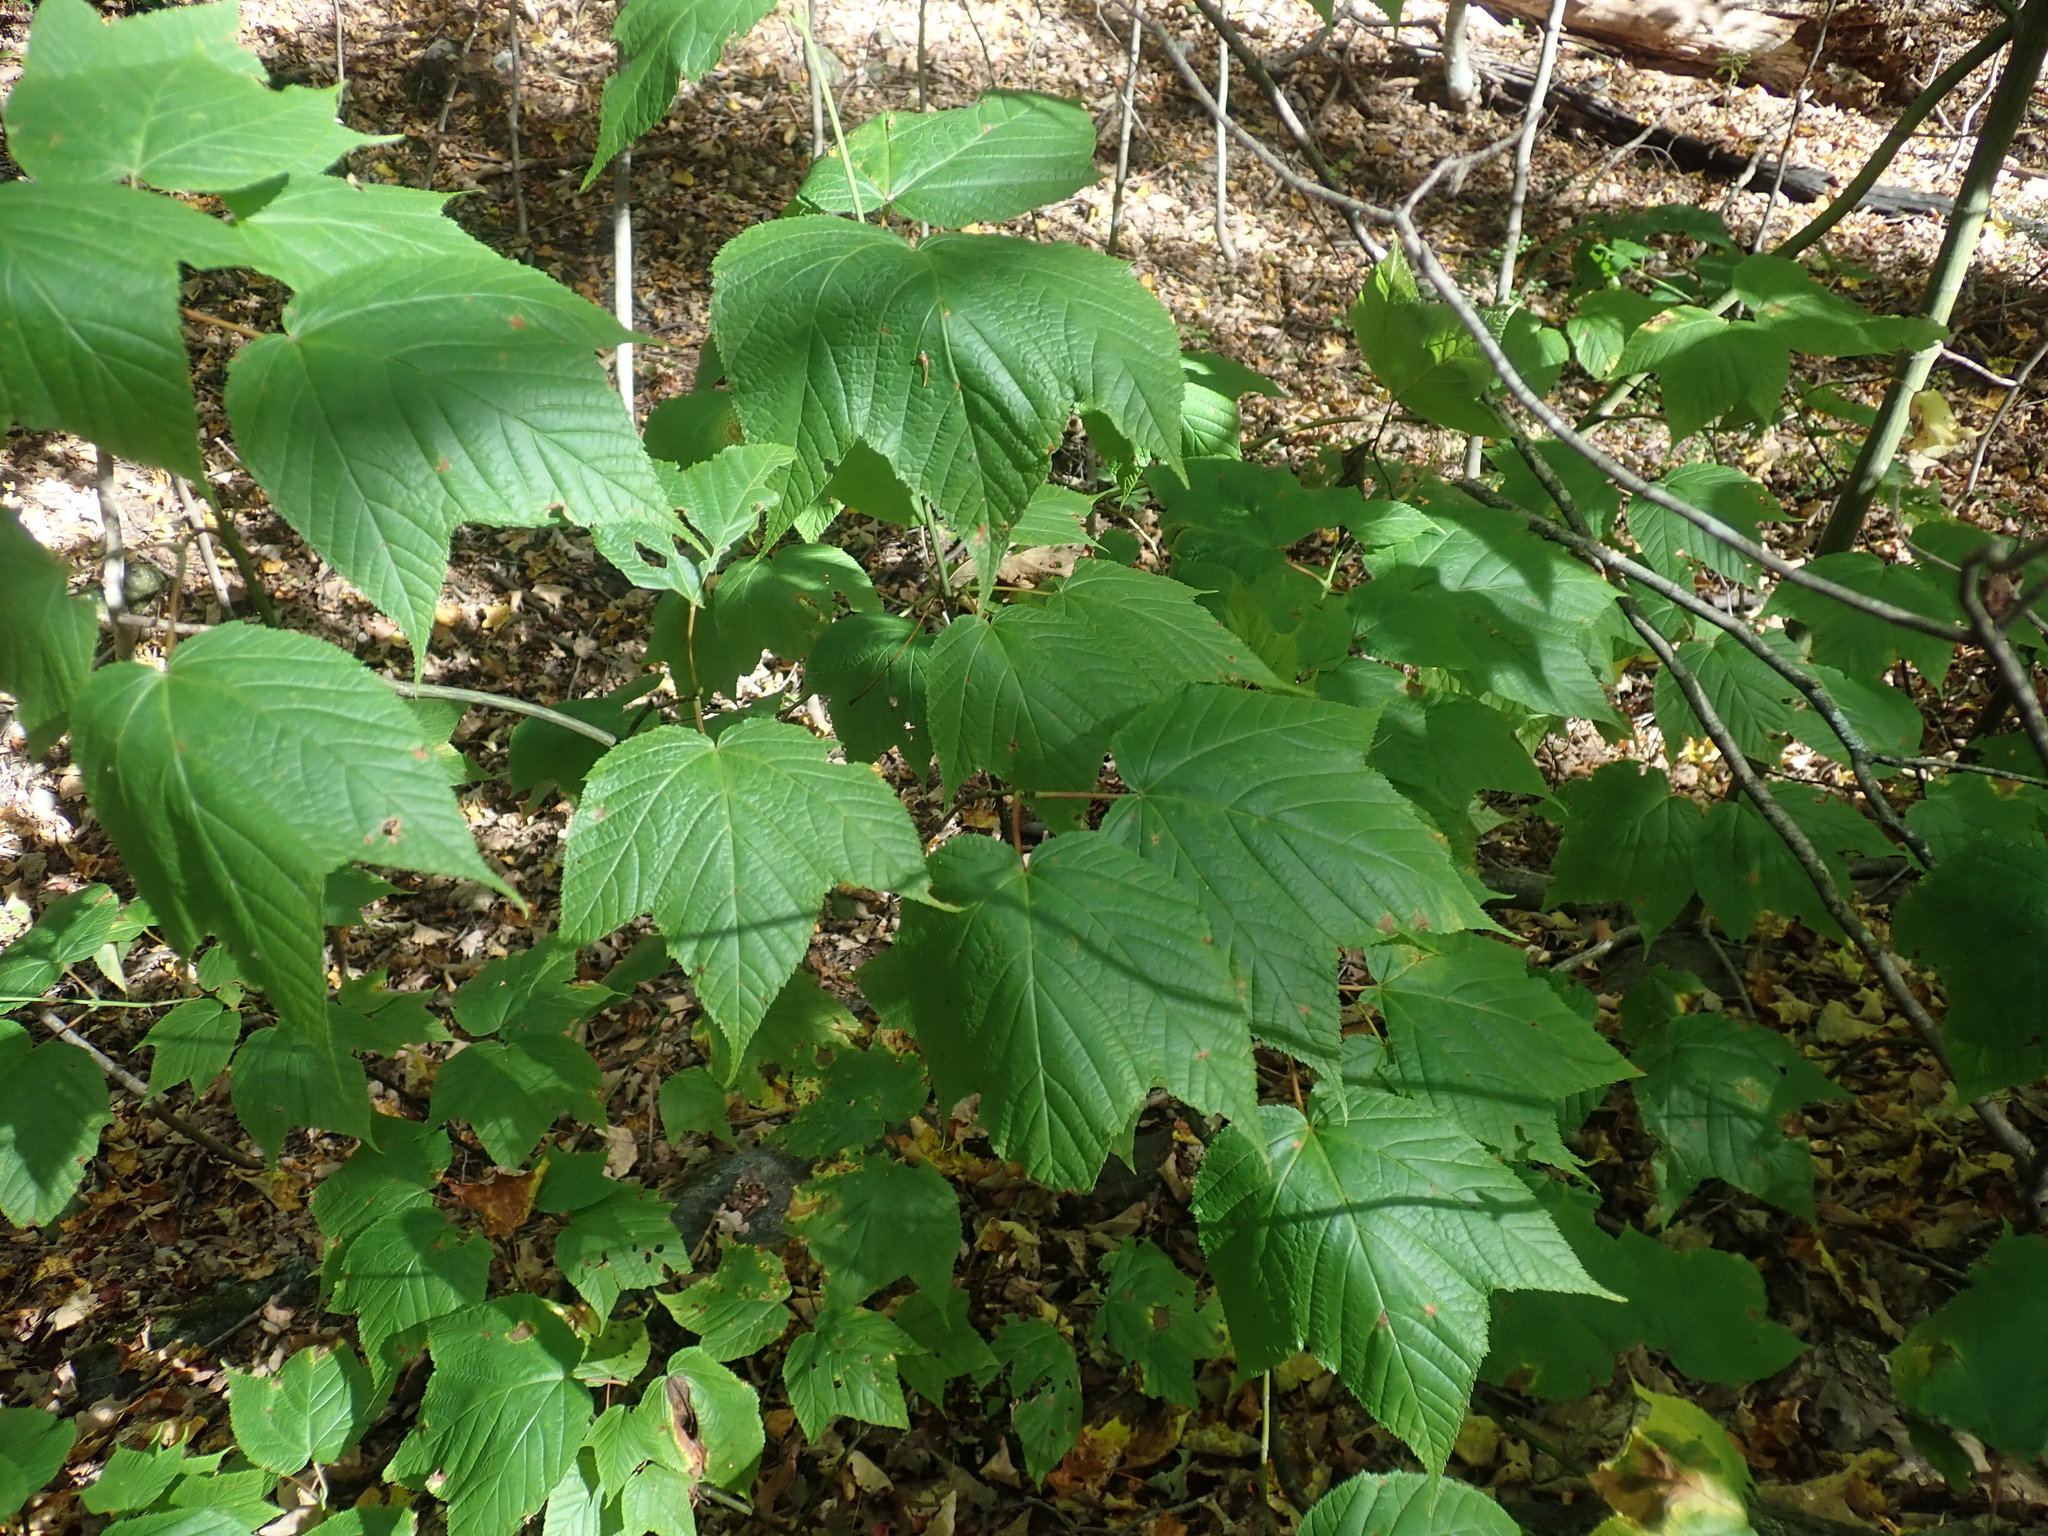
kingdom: Plantae
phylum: Tracheophyta
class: Magnoliopsida
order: Sapindales
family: Sapindaceae
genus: Acer
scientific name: Acer pensylvanicum
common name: Moosewood
